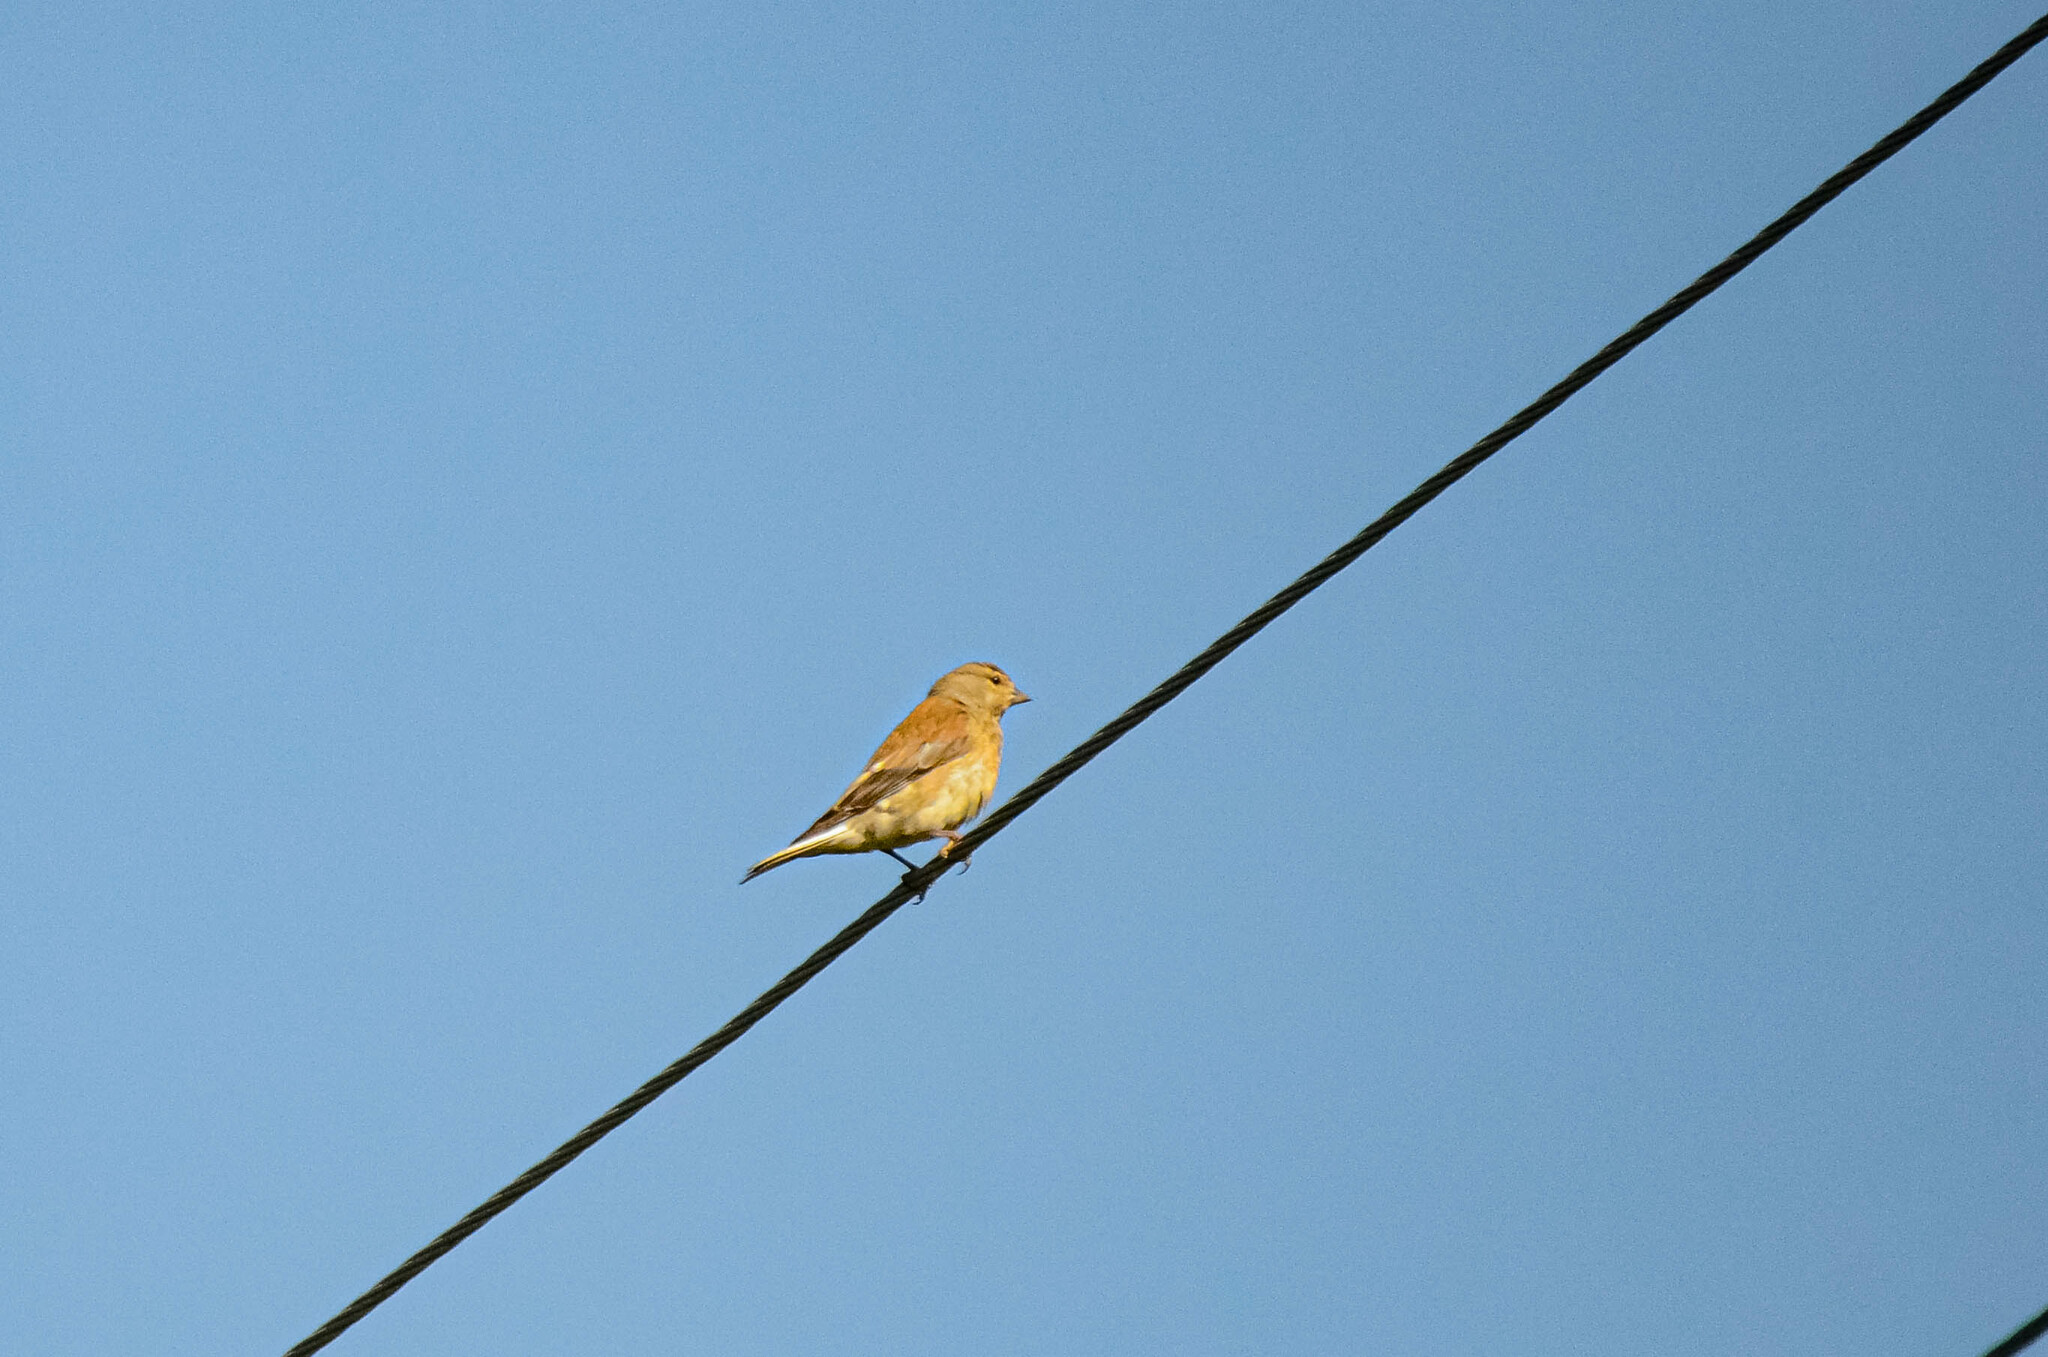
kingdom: Animalia
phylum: Chordata
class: Aves
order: Passeriformes
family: Fringillidae
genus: Linaria
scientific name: Linaria cannabina
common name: Common linnet
